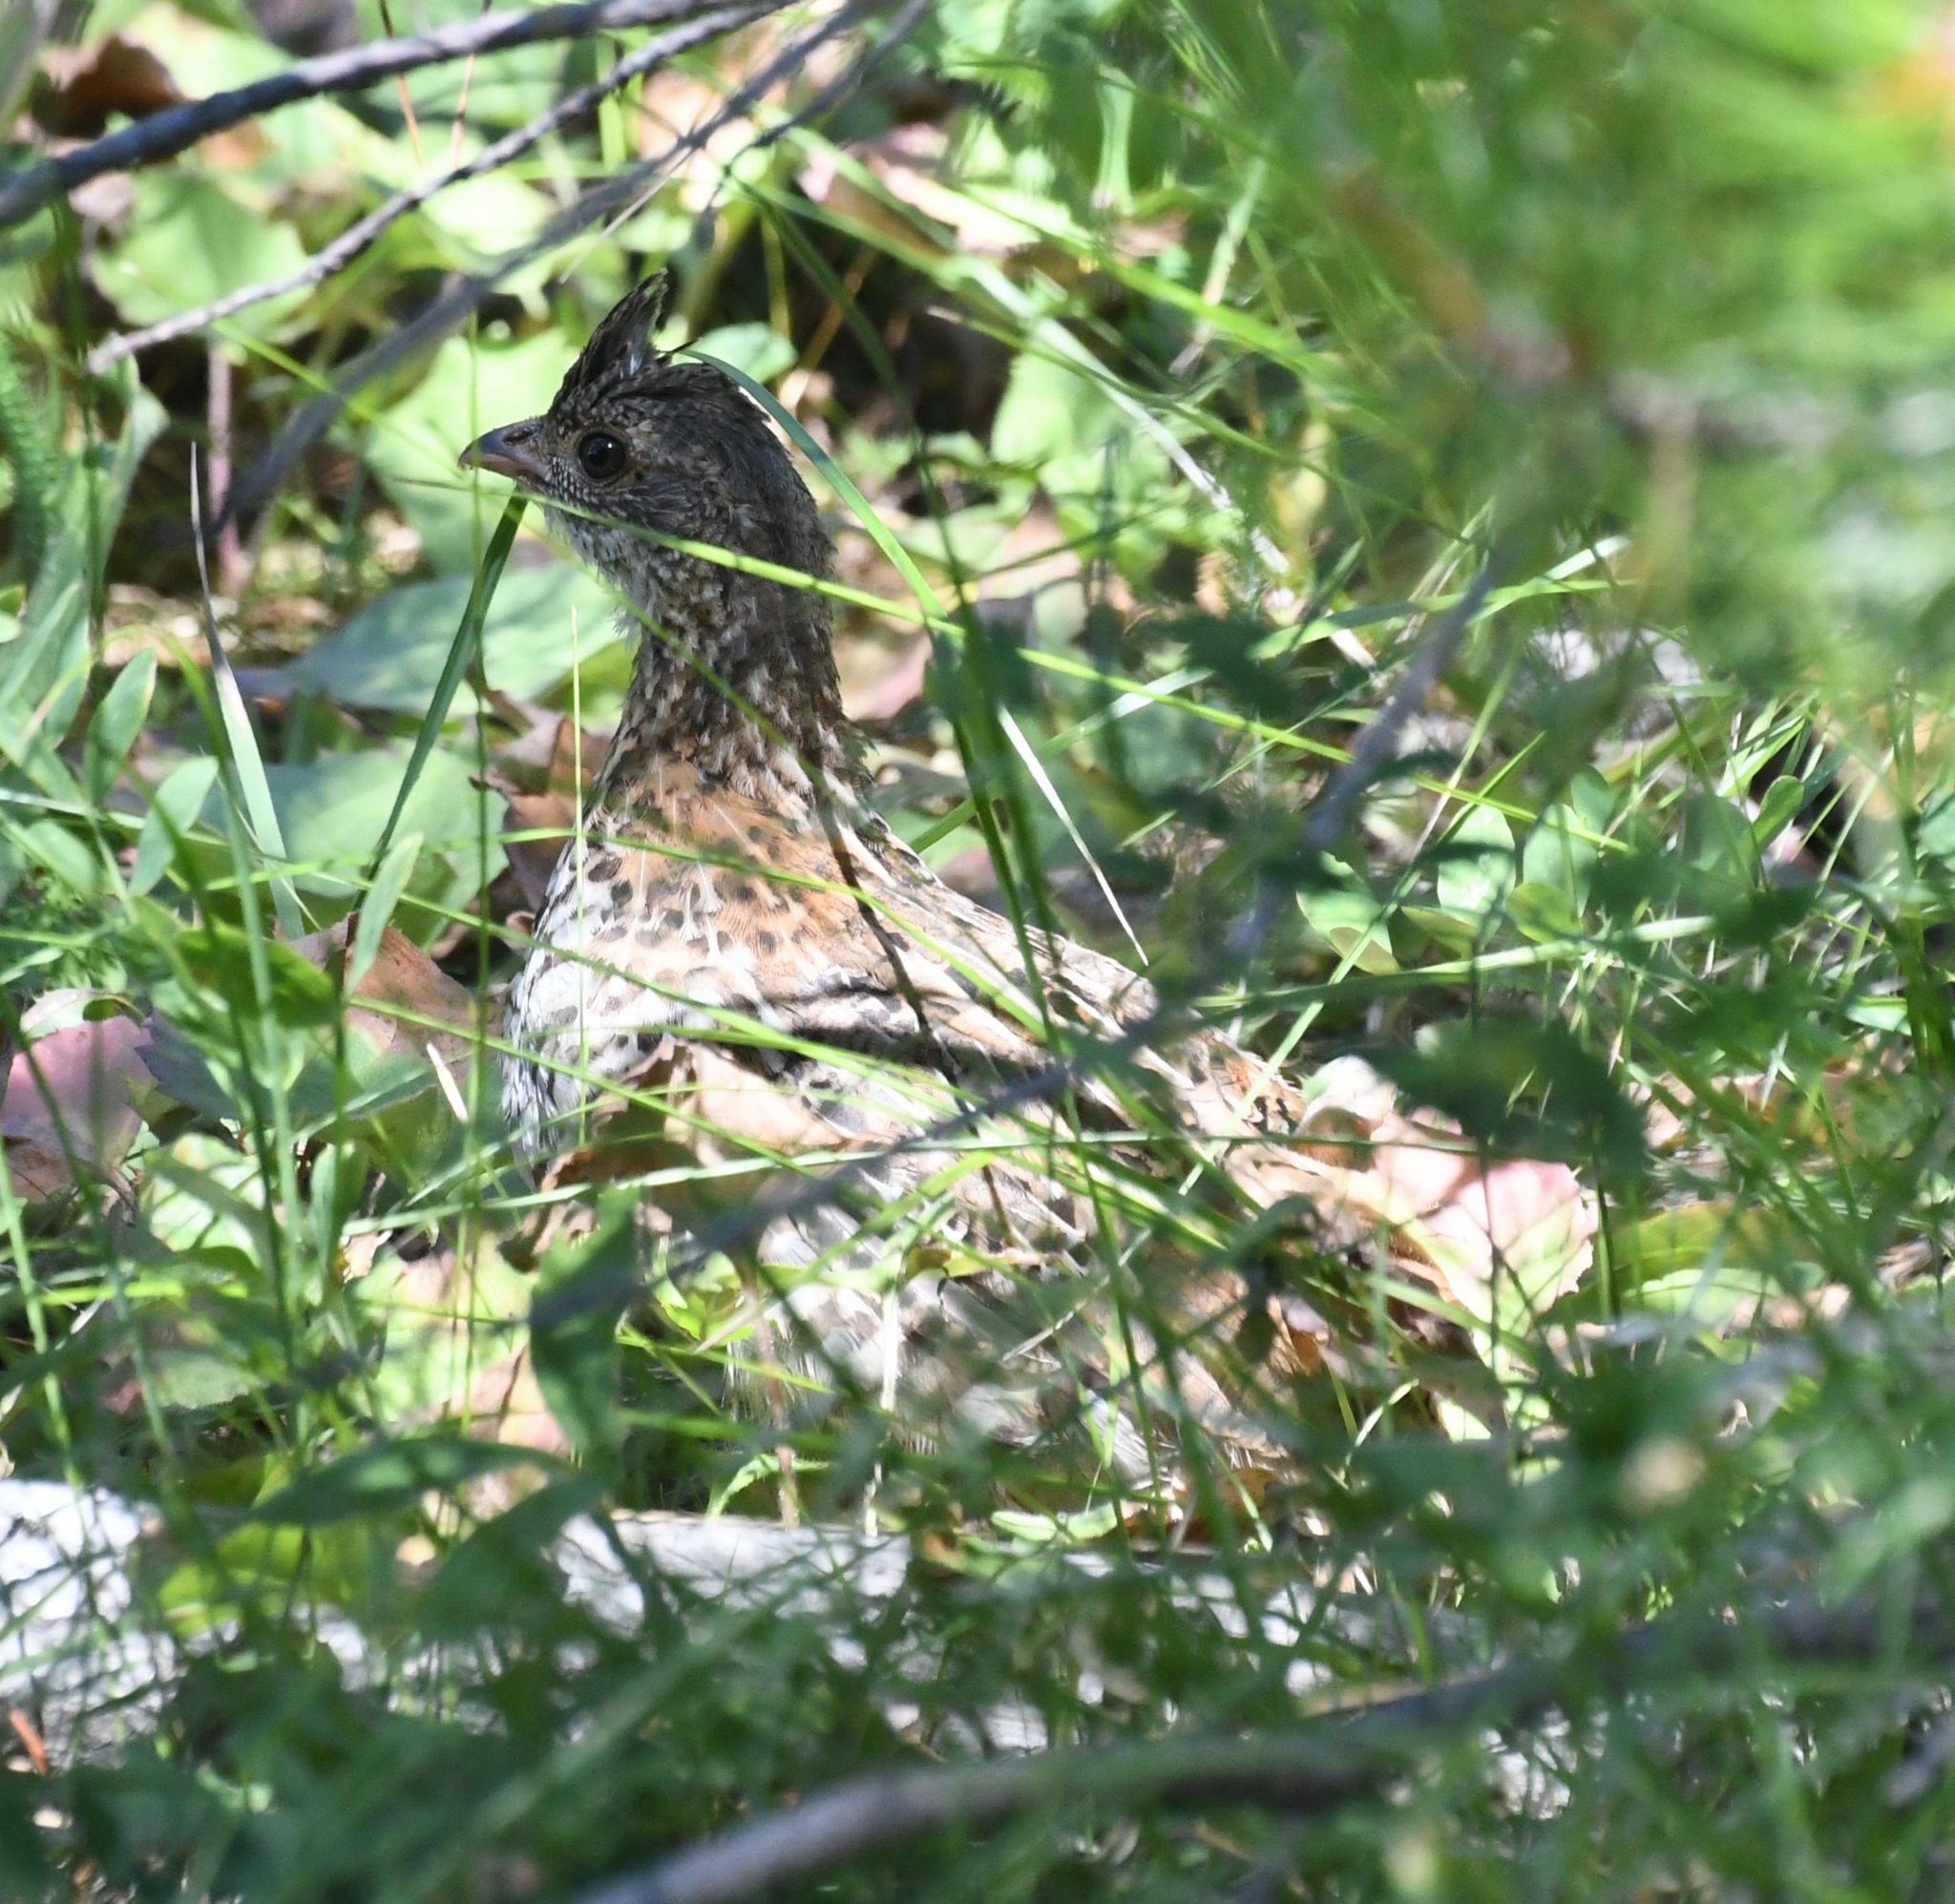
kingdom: Animalia
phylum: Chordata
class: Aves
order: Galliformes
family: Phasianidae
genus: Bonasa
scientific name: Bonasa umbellus
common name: Ruffed grouse
